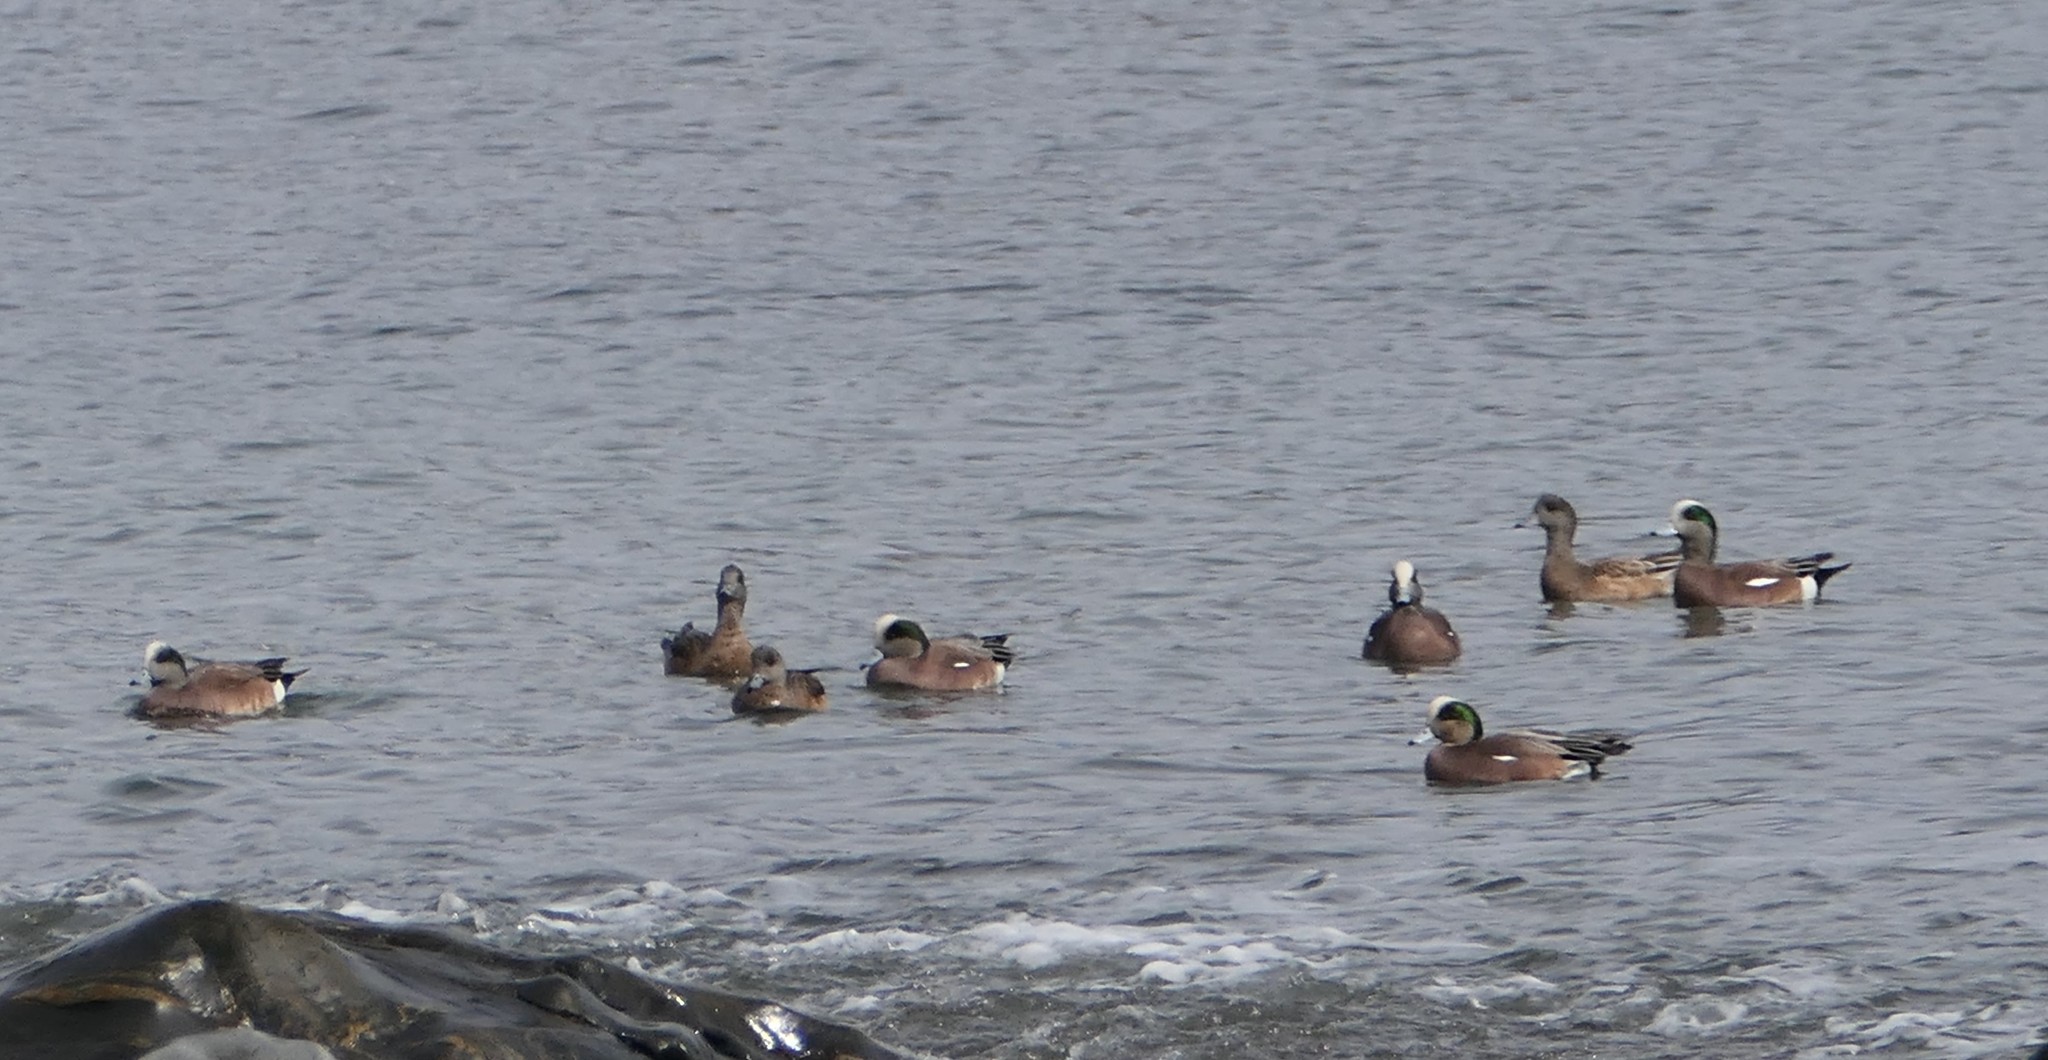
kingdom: Animalia
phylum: Chordata
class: Aves
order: Anseriformes
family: Anatidae
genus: Mareca
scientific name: Mareca americana
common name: American wigeon
